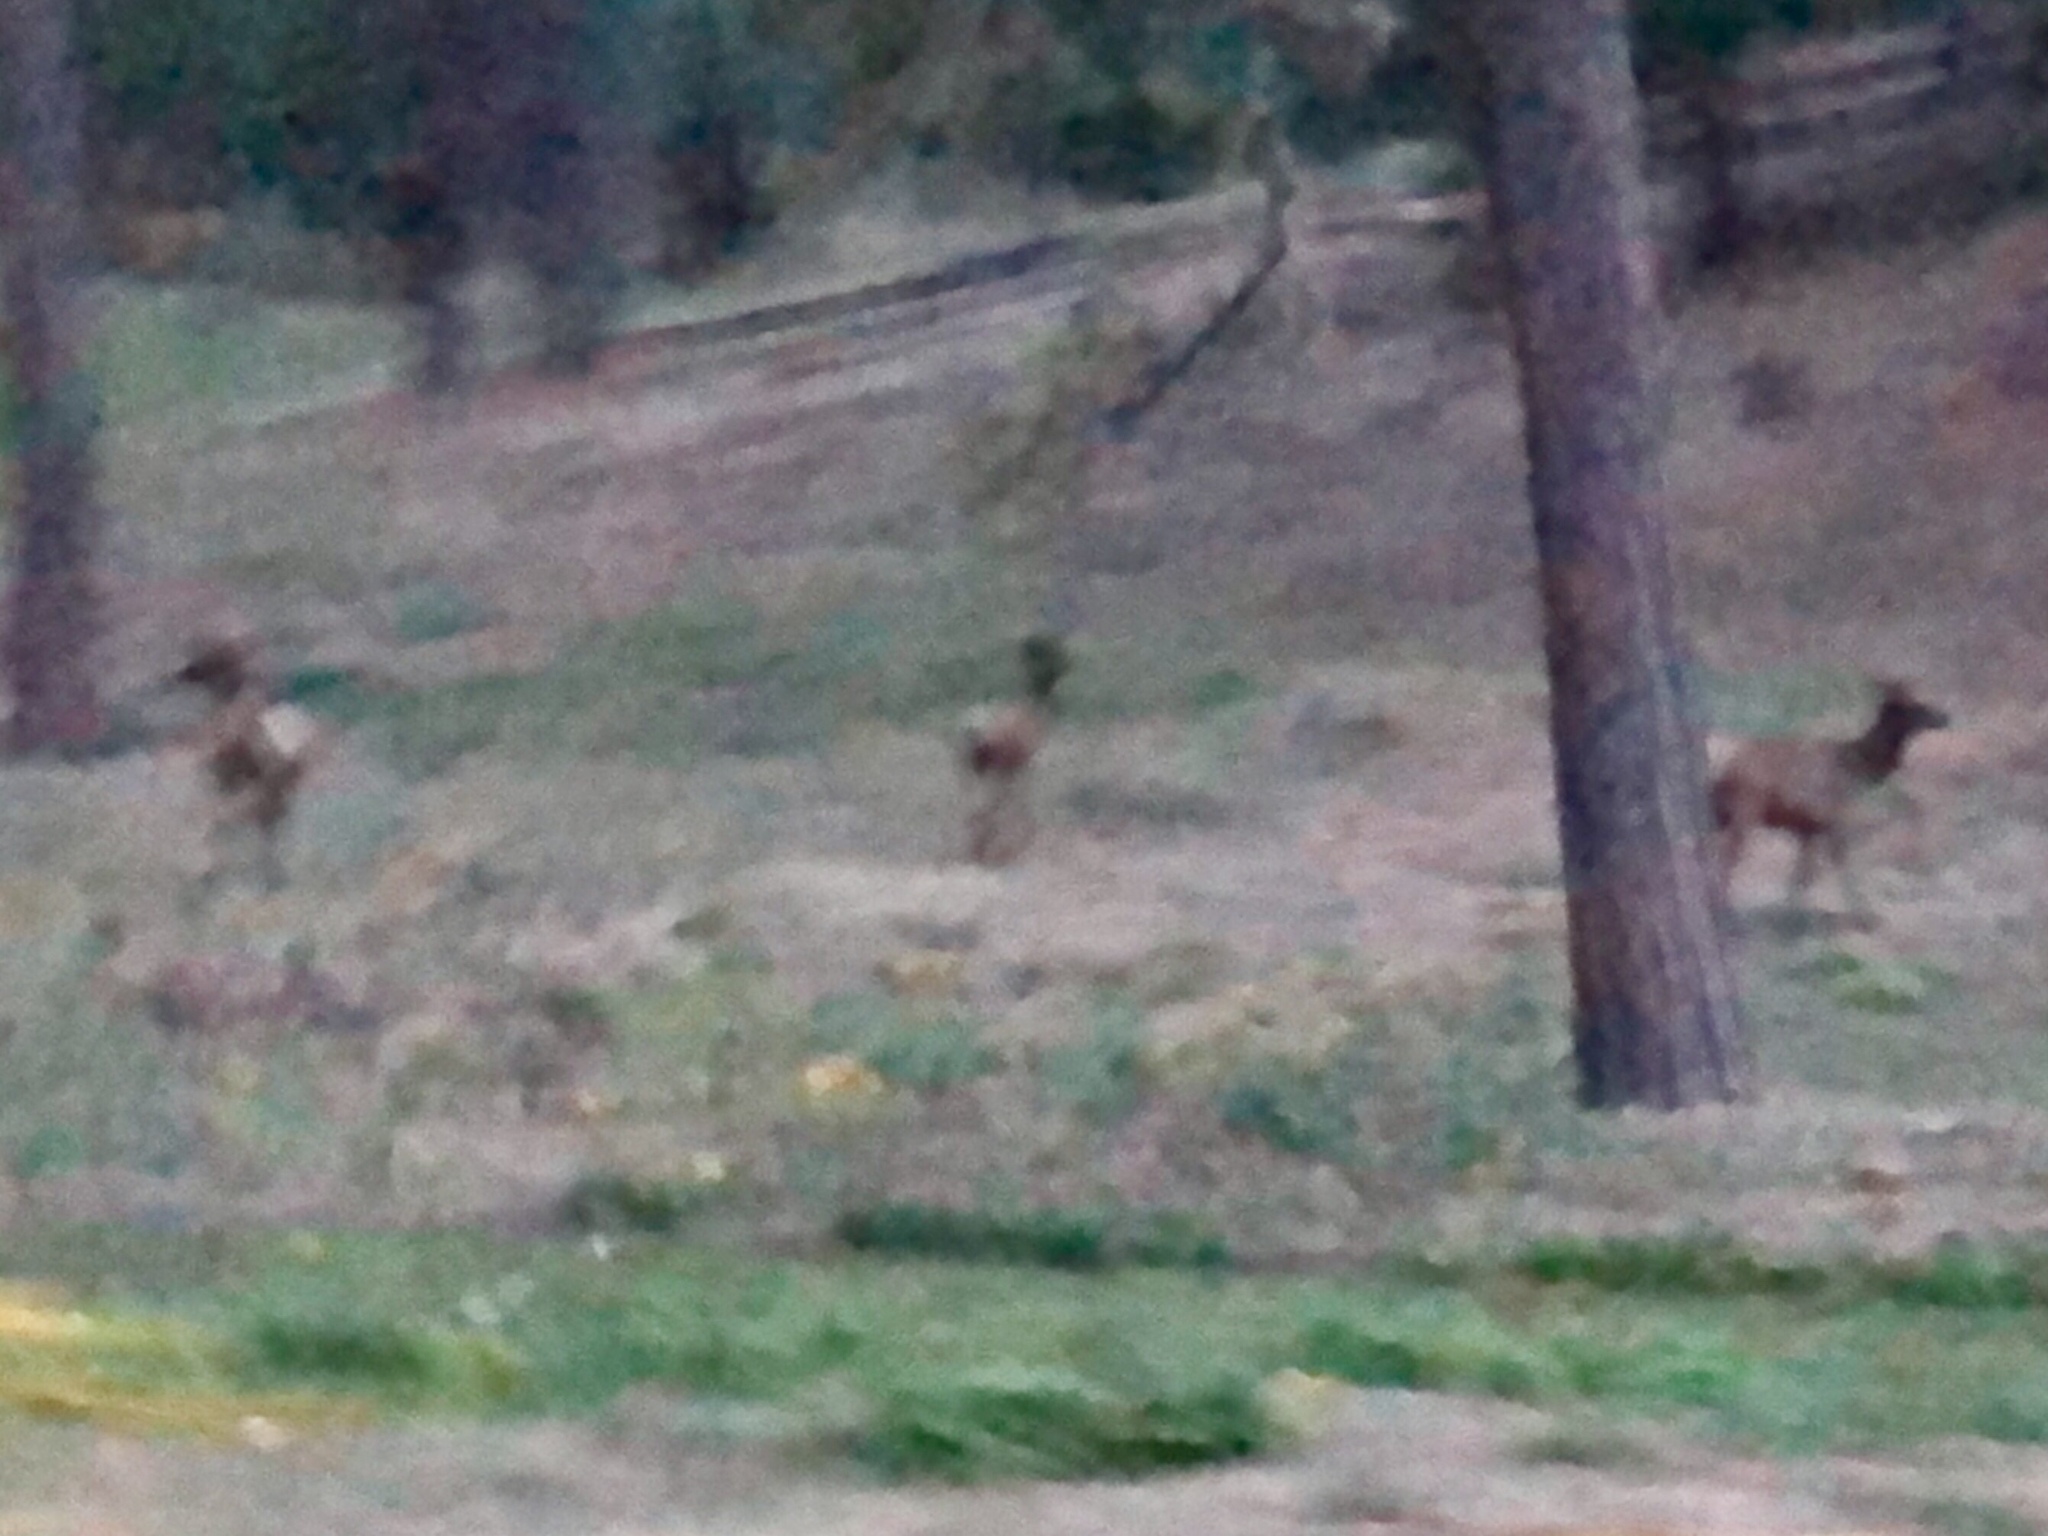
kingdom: Animalia
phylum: Chordata
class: Mammalia
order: Artiodactyla
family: Cervidae
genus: Cervus
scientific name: Cervus elaphus
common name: Red deer
